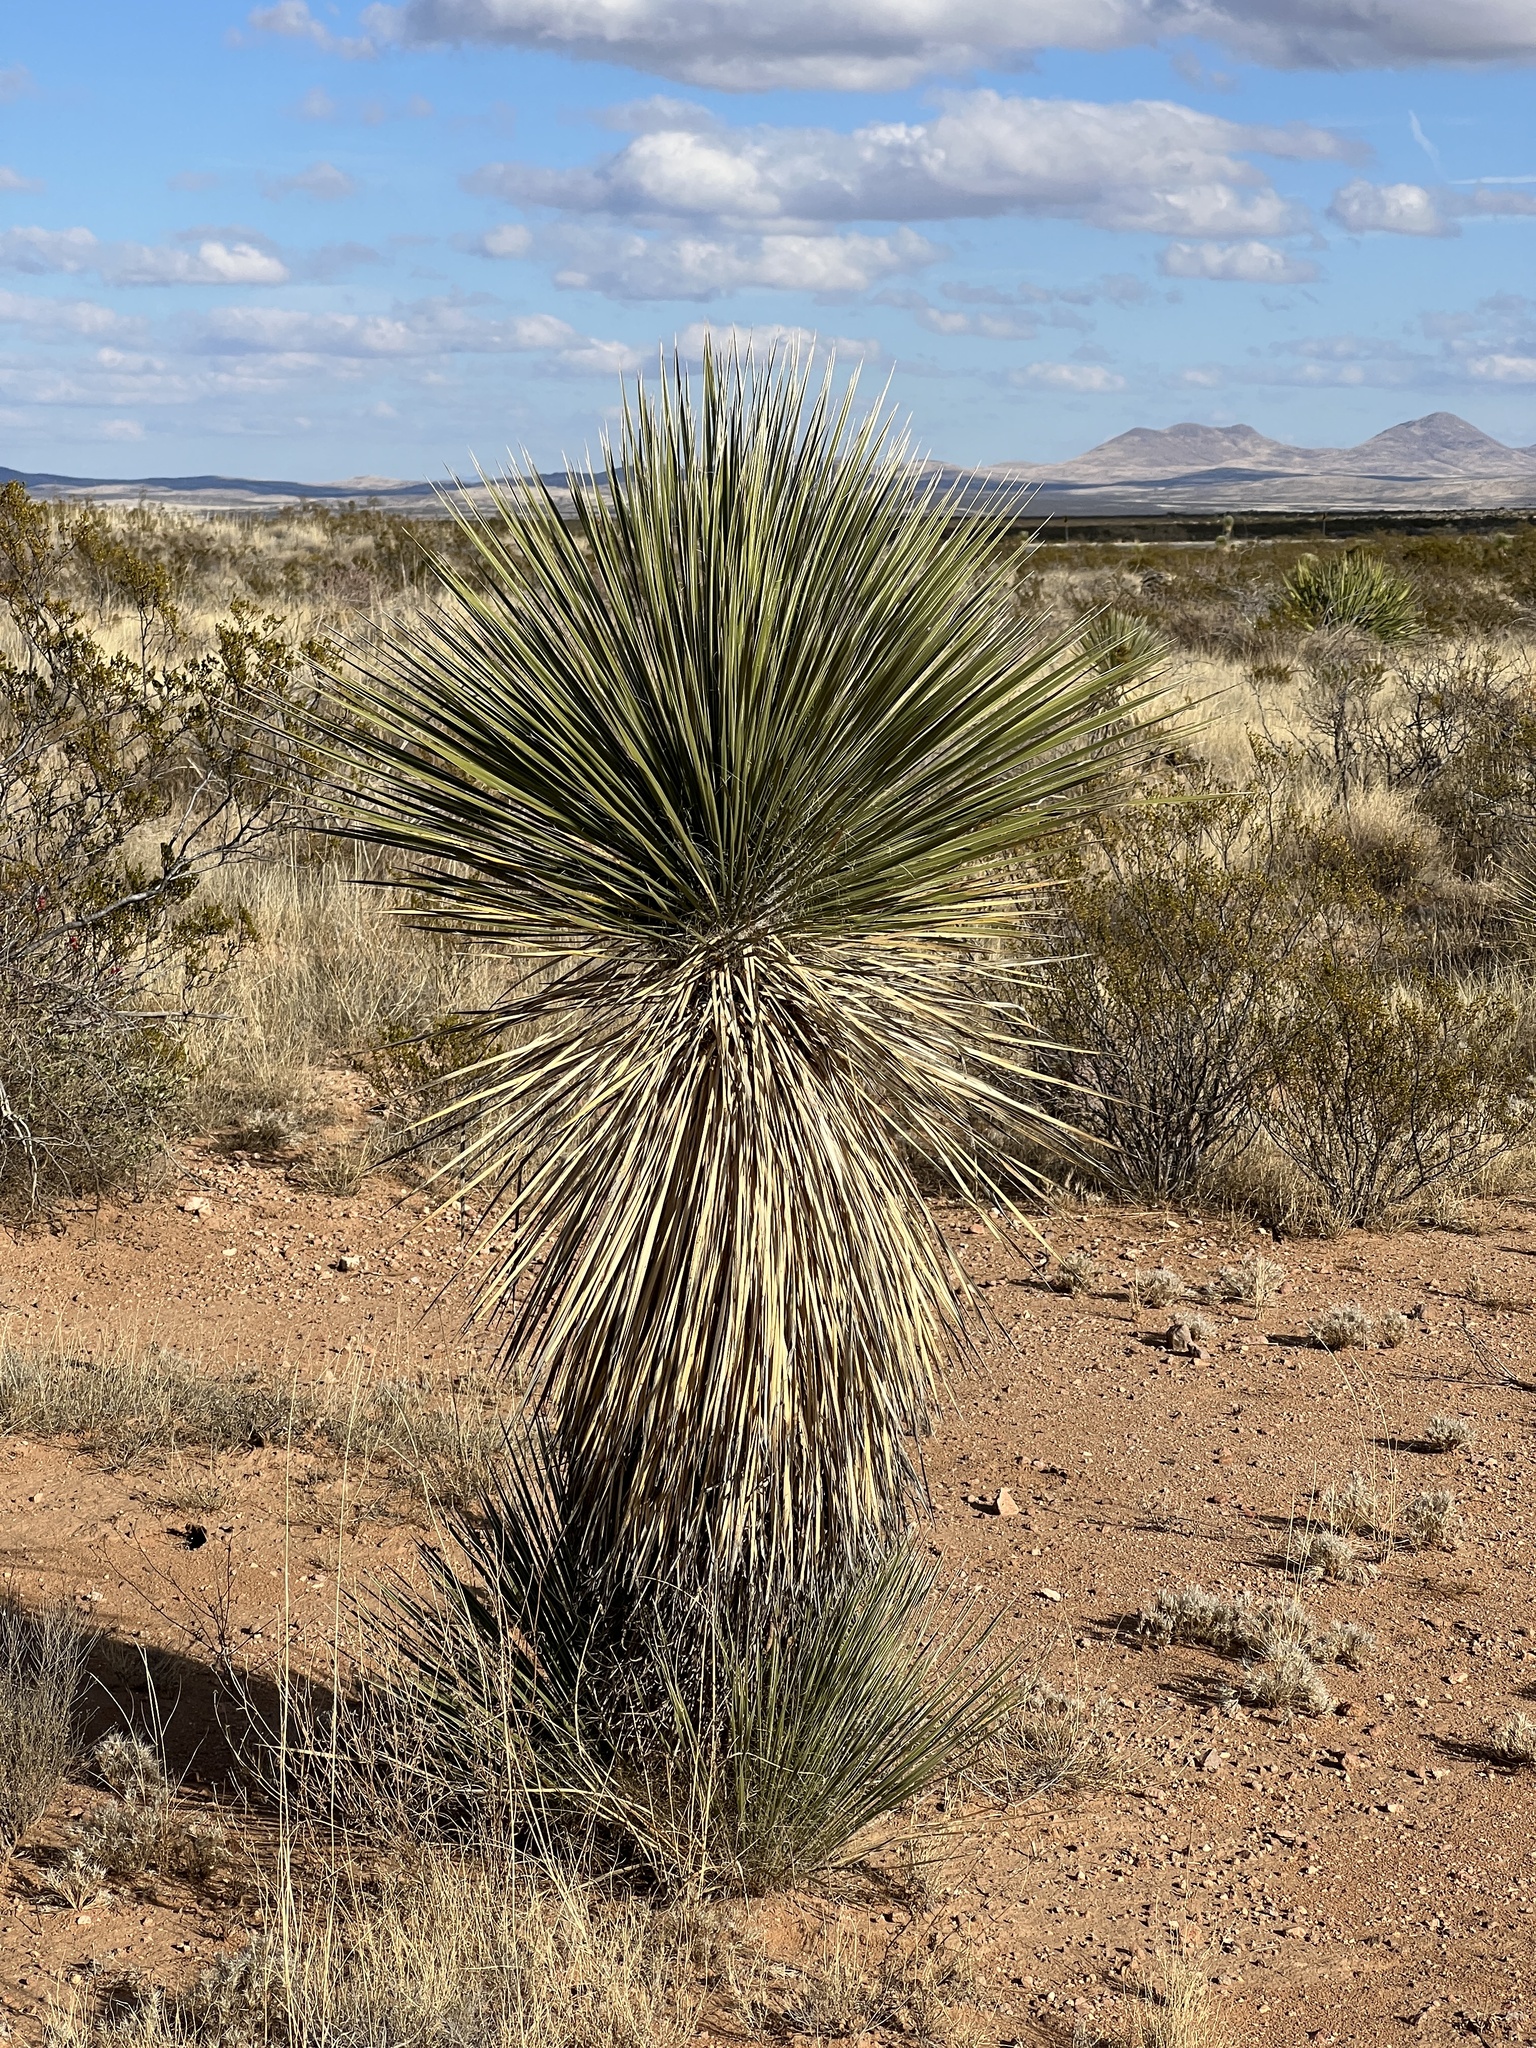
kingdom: Plantae
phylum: Tracheophyta
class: Liliopsida
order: Asparagales
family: Asparagaceae
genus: Yucca
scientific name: Yucca elata
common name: Palmella
